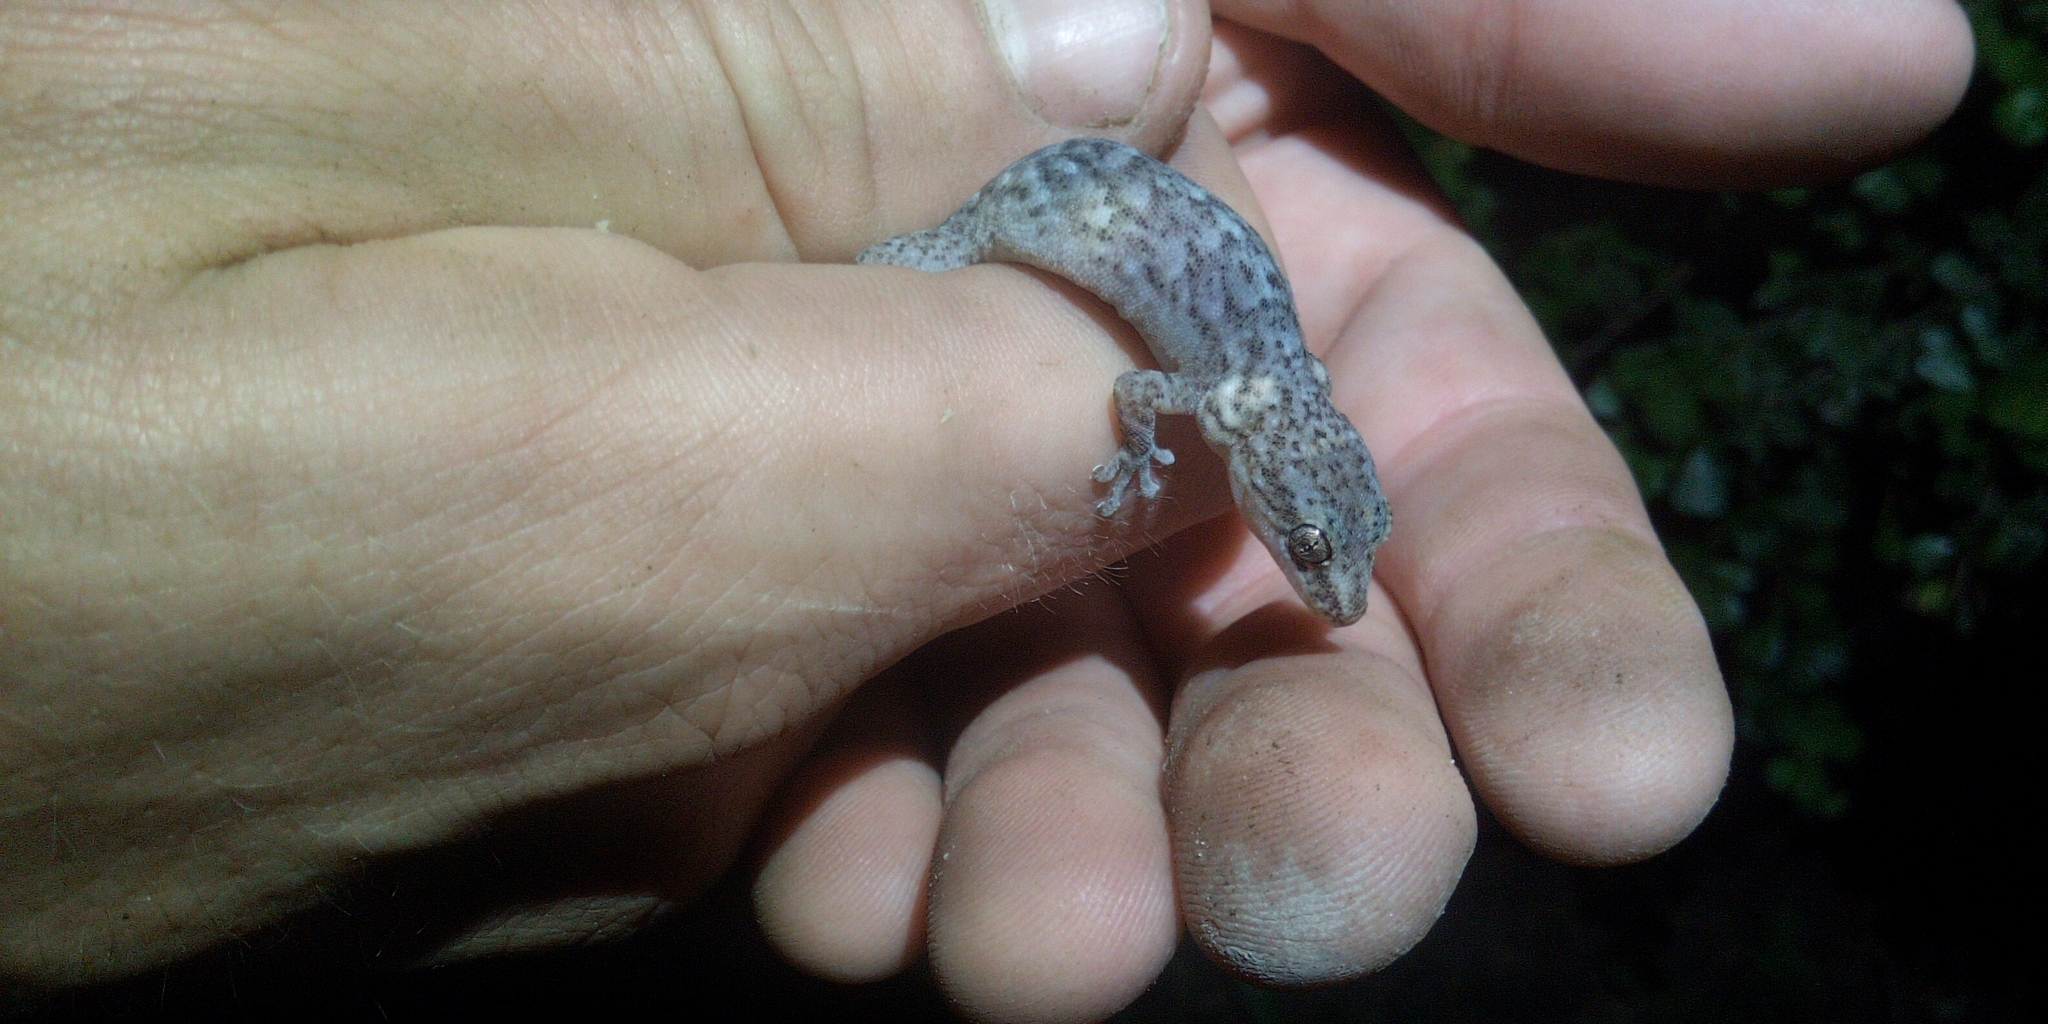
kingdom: Animalia
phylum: Chordata
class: Squamata
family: Gekkonidae
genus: Afrogecko
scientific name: Afrogecko porphyreus
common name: Marbled leaf-toed gecko
